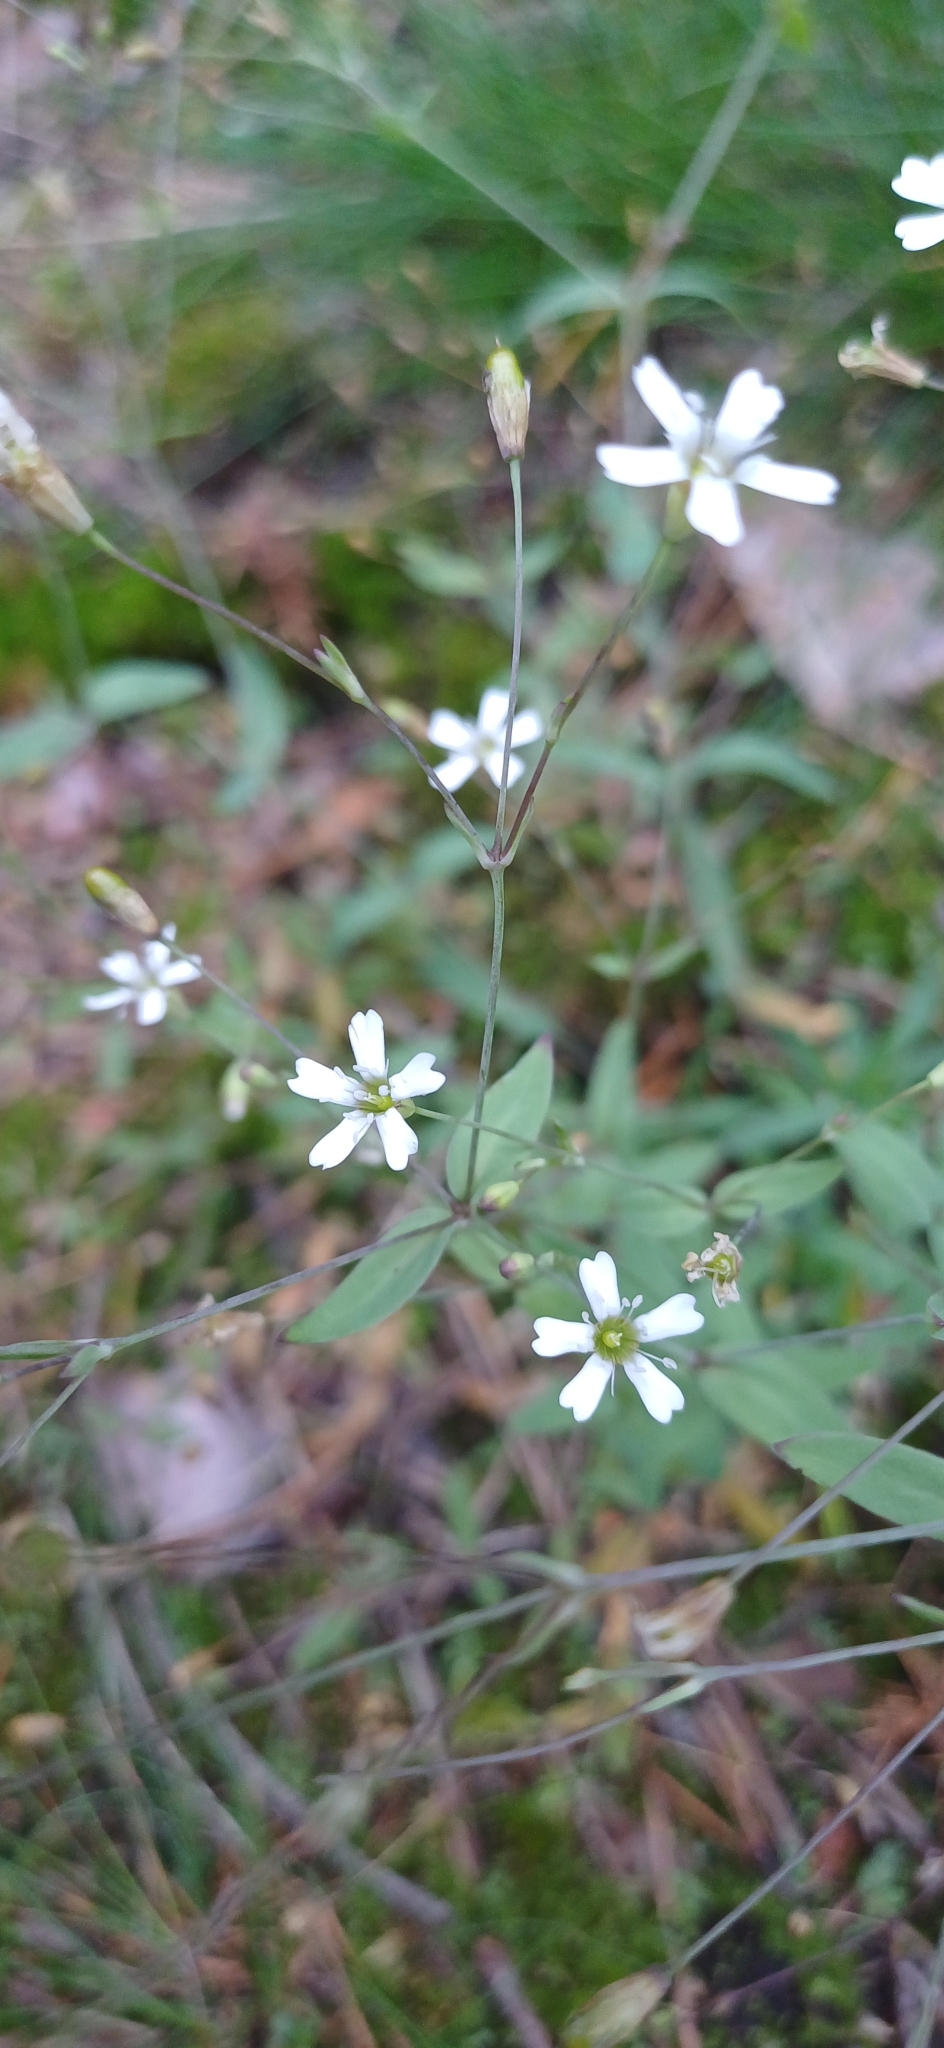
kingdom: Plantae
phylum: Tracheophyta
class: Magnoliopsida
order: Caryophyllales
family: Caryophyllaceae
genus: Atocion
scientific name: Atocion rupestre
